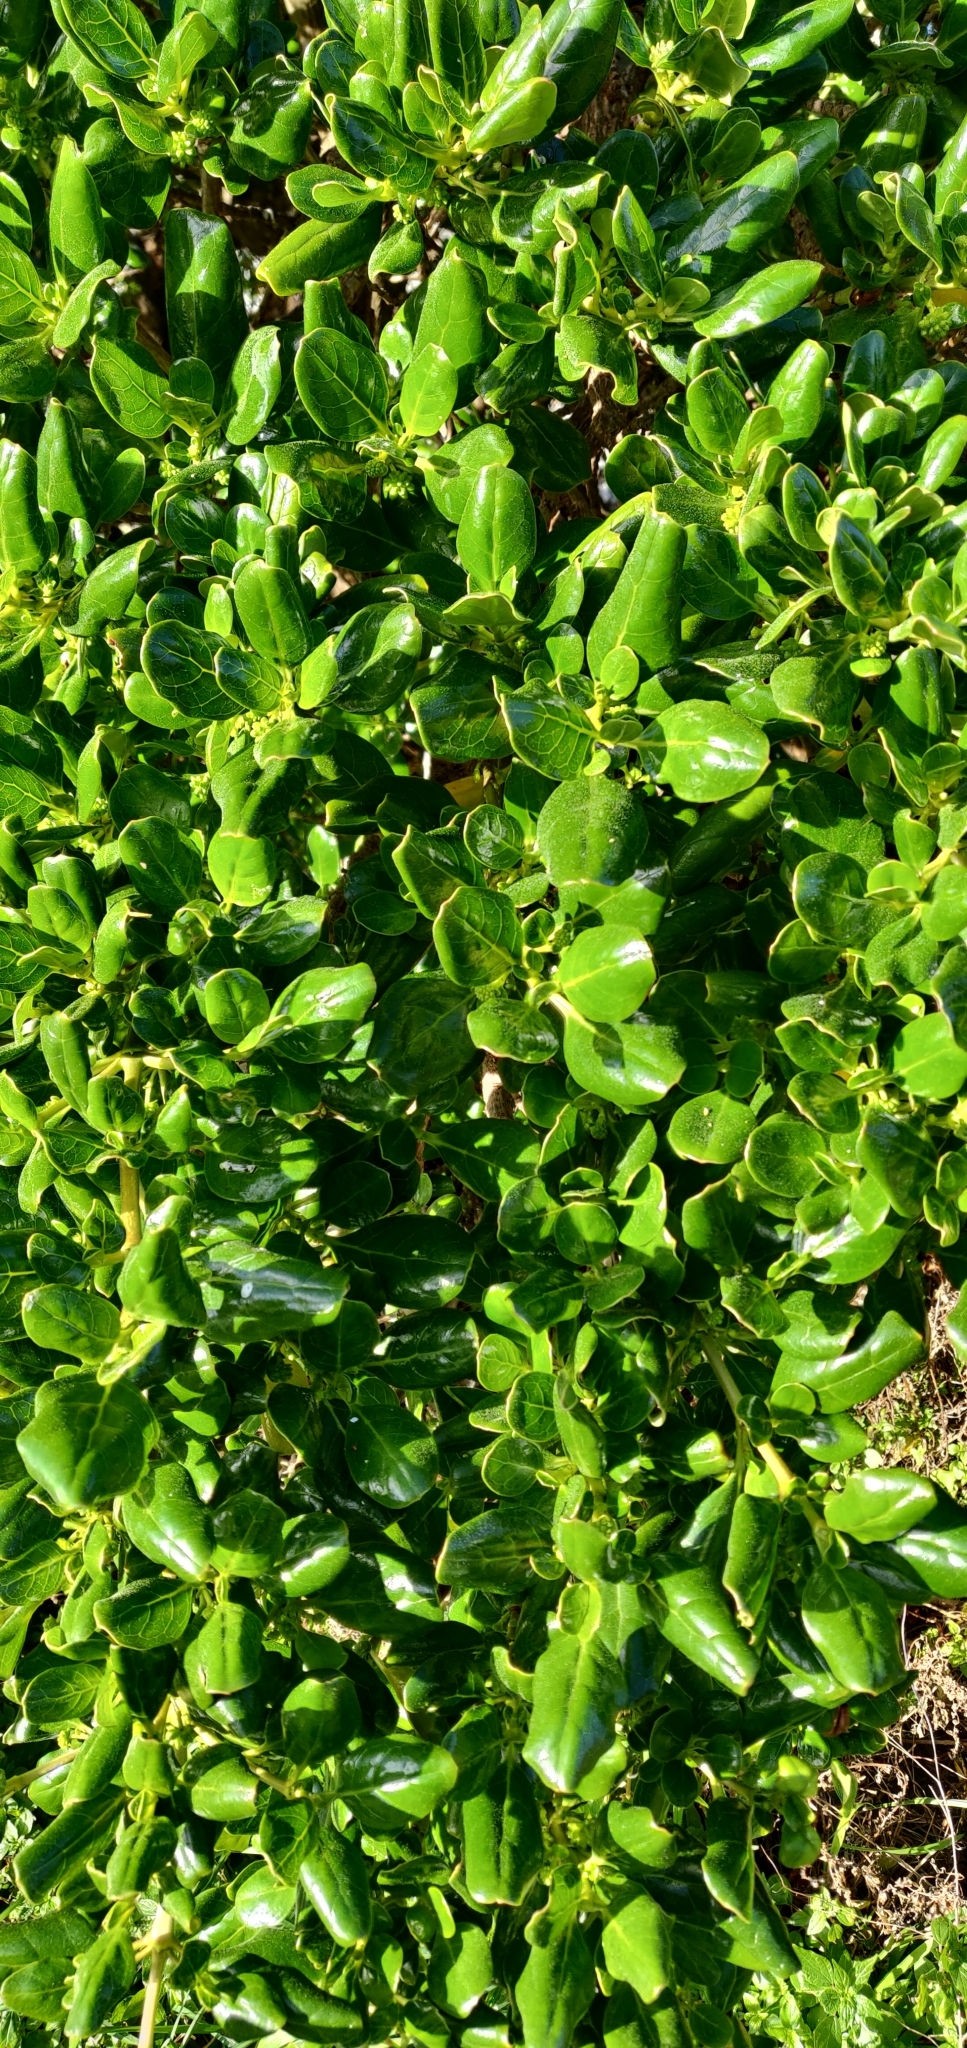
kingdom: Plantae
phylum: Tracheophyta
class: Magnoliopsida
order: Gentianales
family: Rubiaceae
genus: Coprosma
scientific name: Coprosma repens
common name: Tree bedstraw
